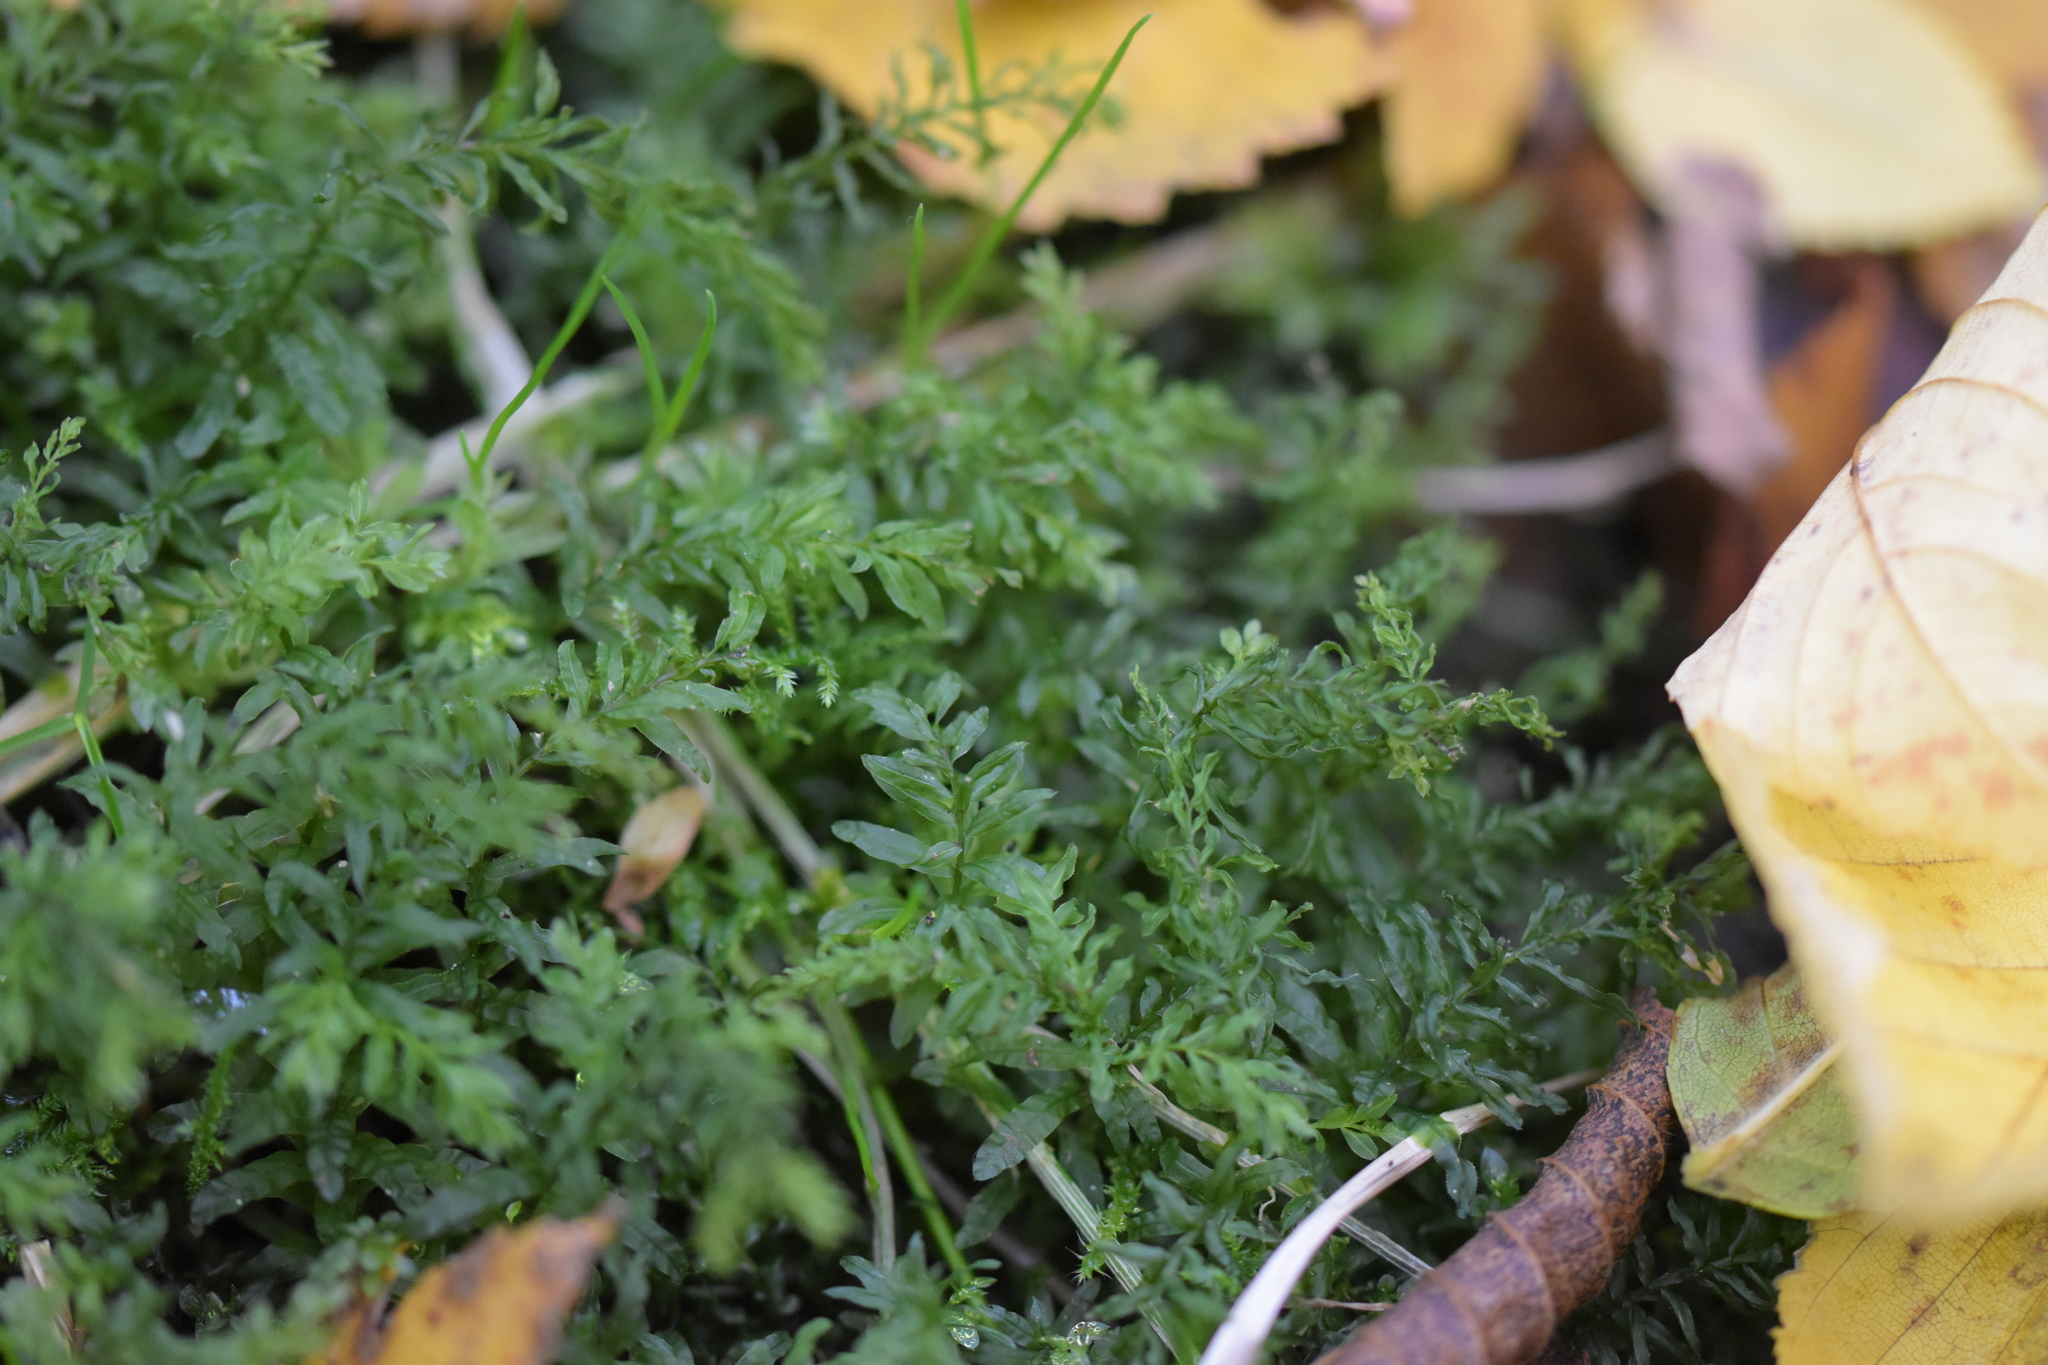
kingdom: Plantae
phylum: Bryophyta
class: Bryopsida
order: Bryales
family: Mniaceae
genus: Plagiomnium
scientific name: Plagiomnium undulatum
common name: Hart's-tongue thyme-moss
